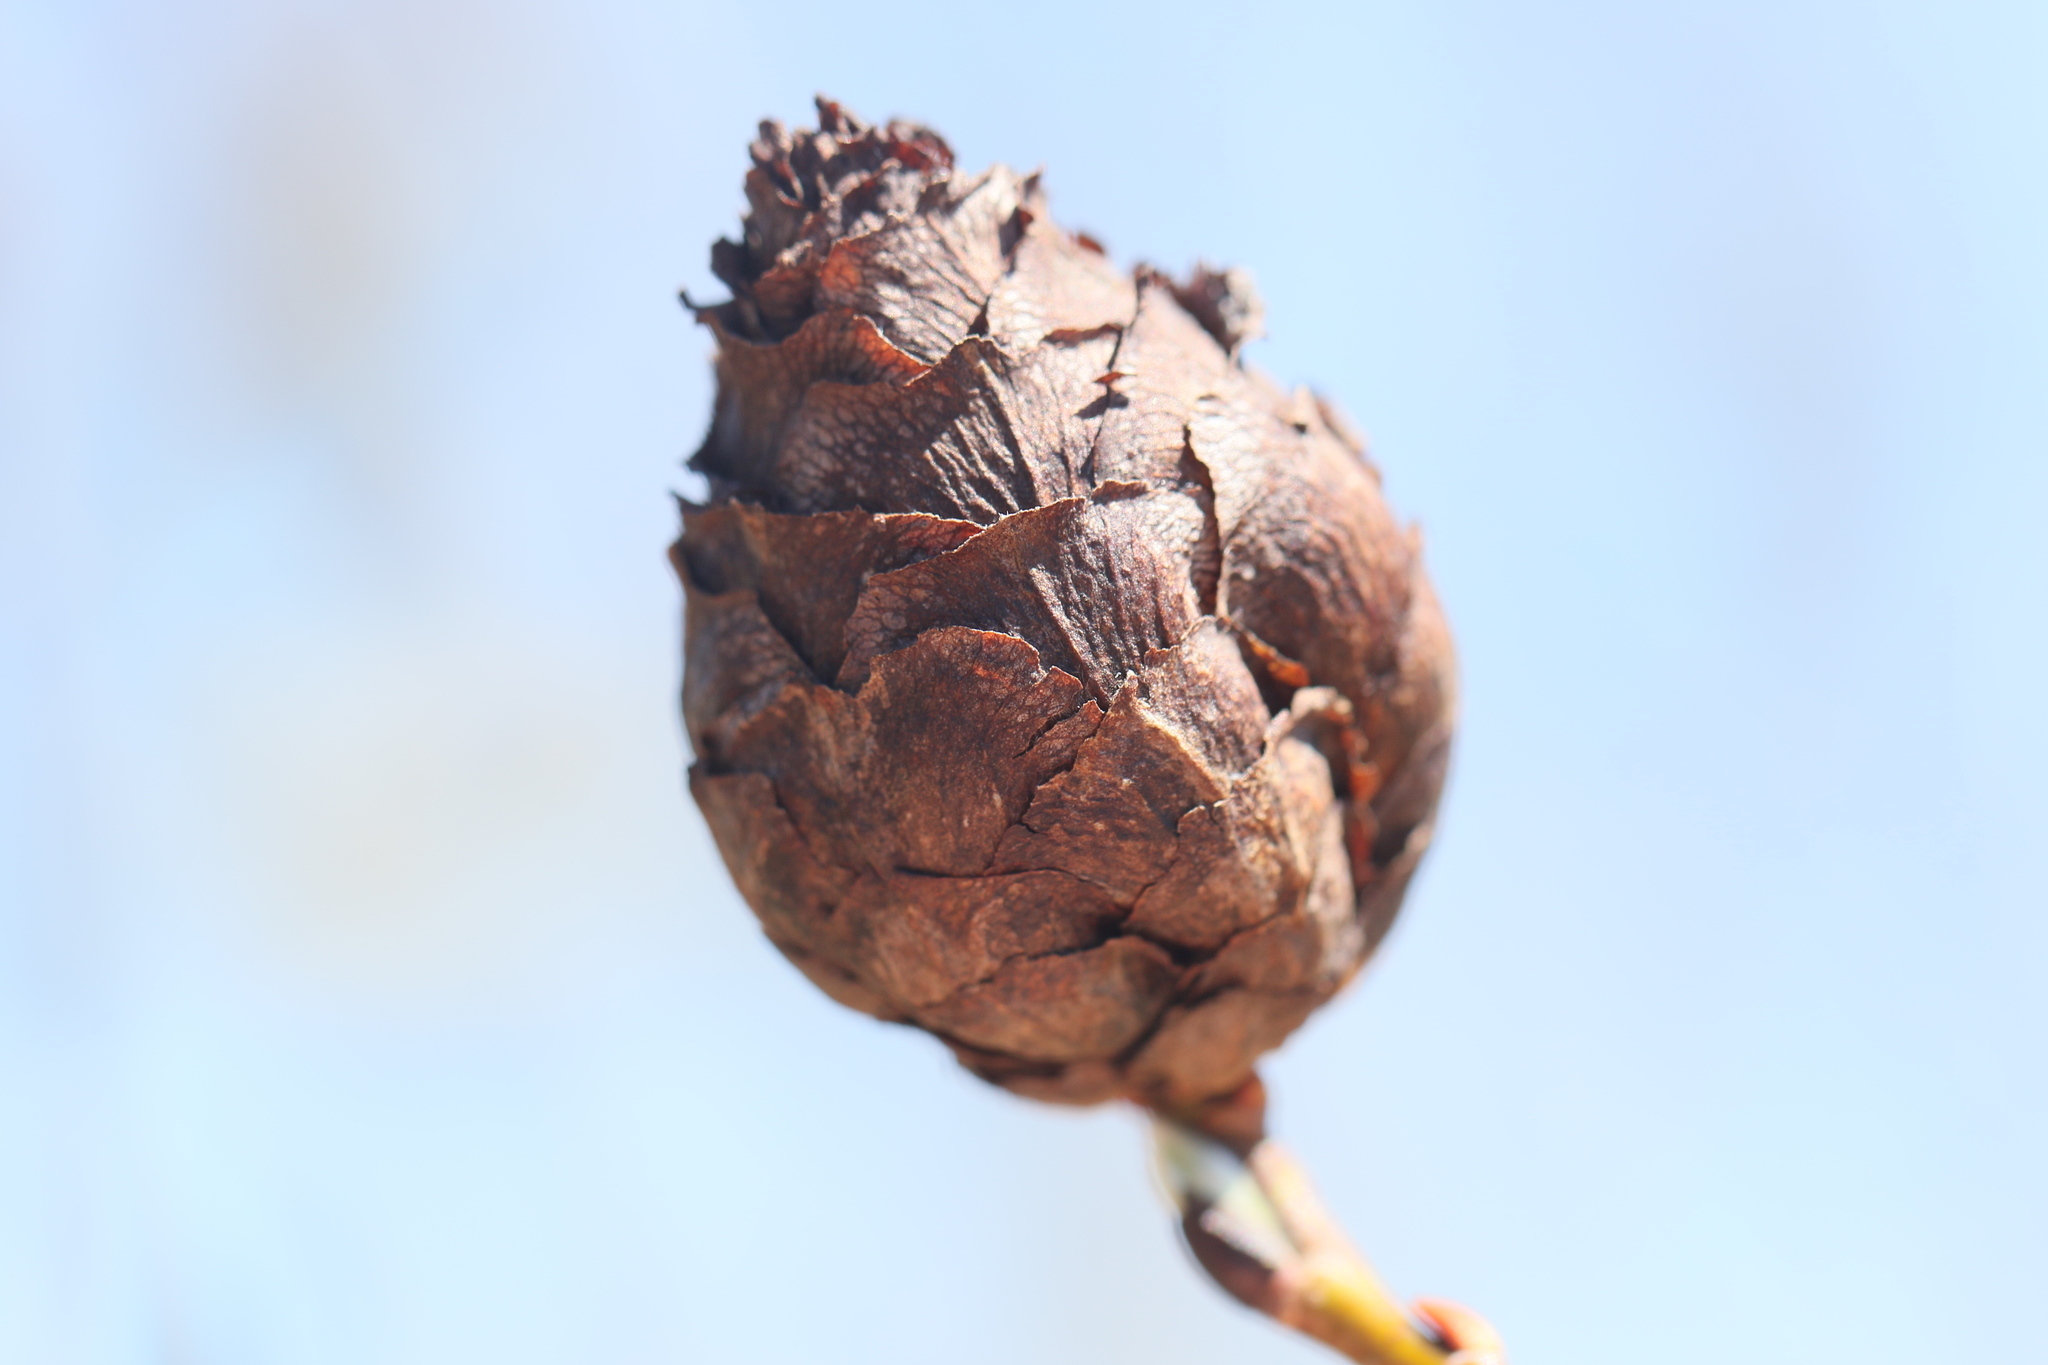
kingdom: Animalia
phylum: Arthropoda
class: Insecta
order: Diptera
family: Cecidomyiidae
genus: Rabdophaga
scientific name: Rabdophaga strobiloides
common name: Willow pinecone gall midge
